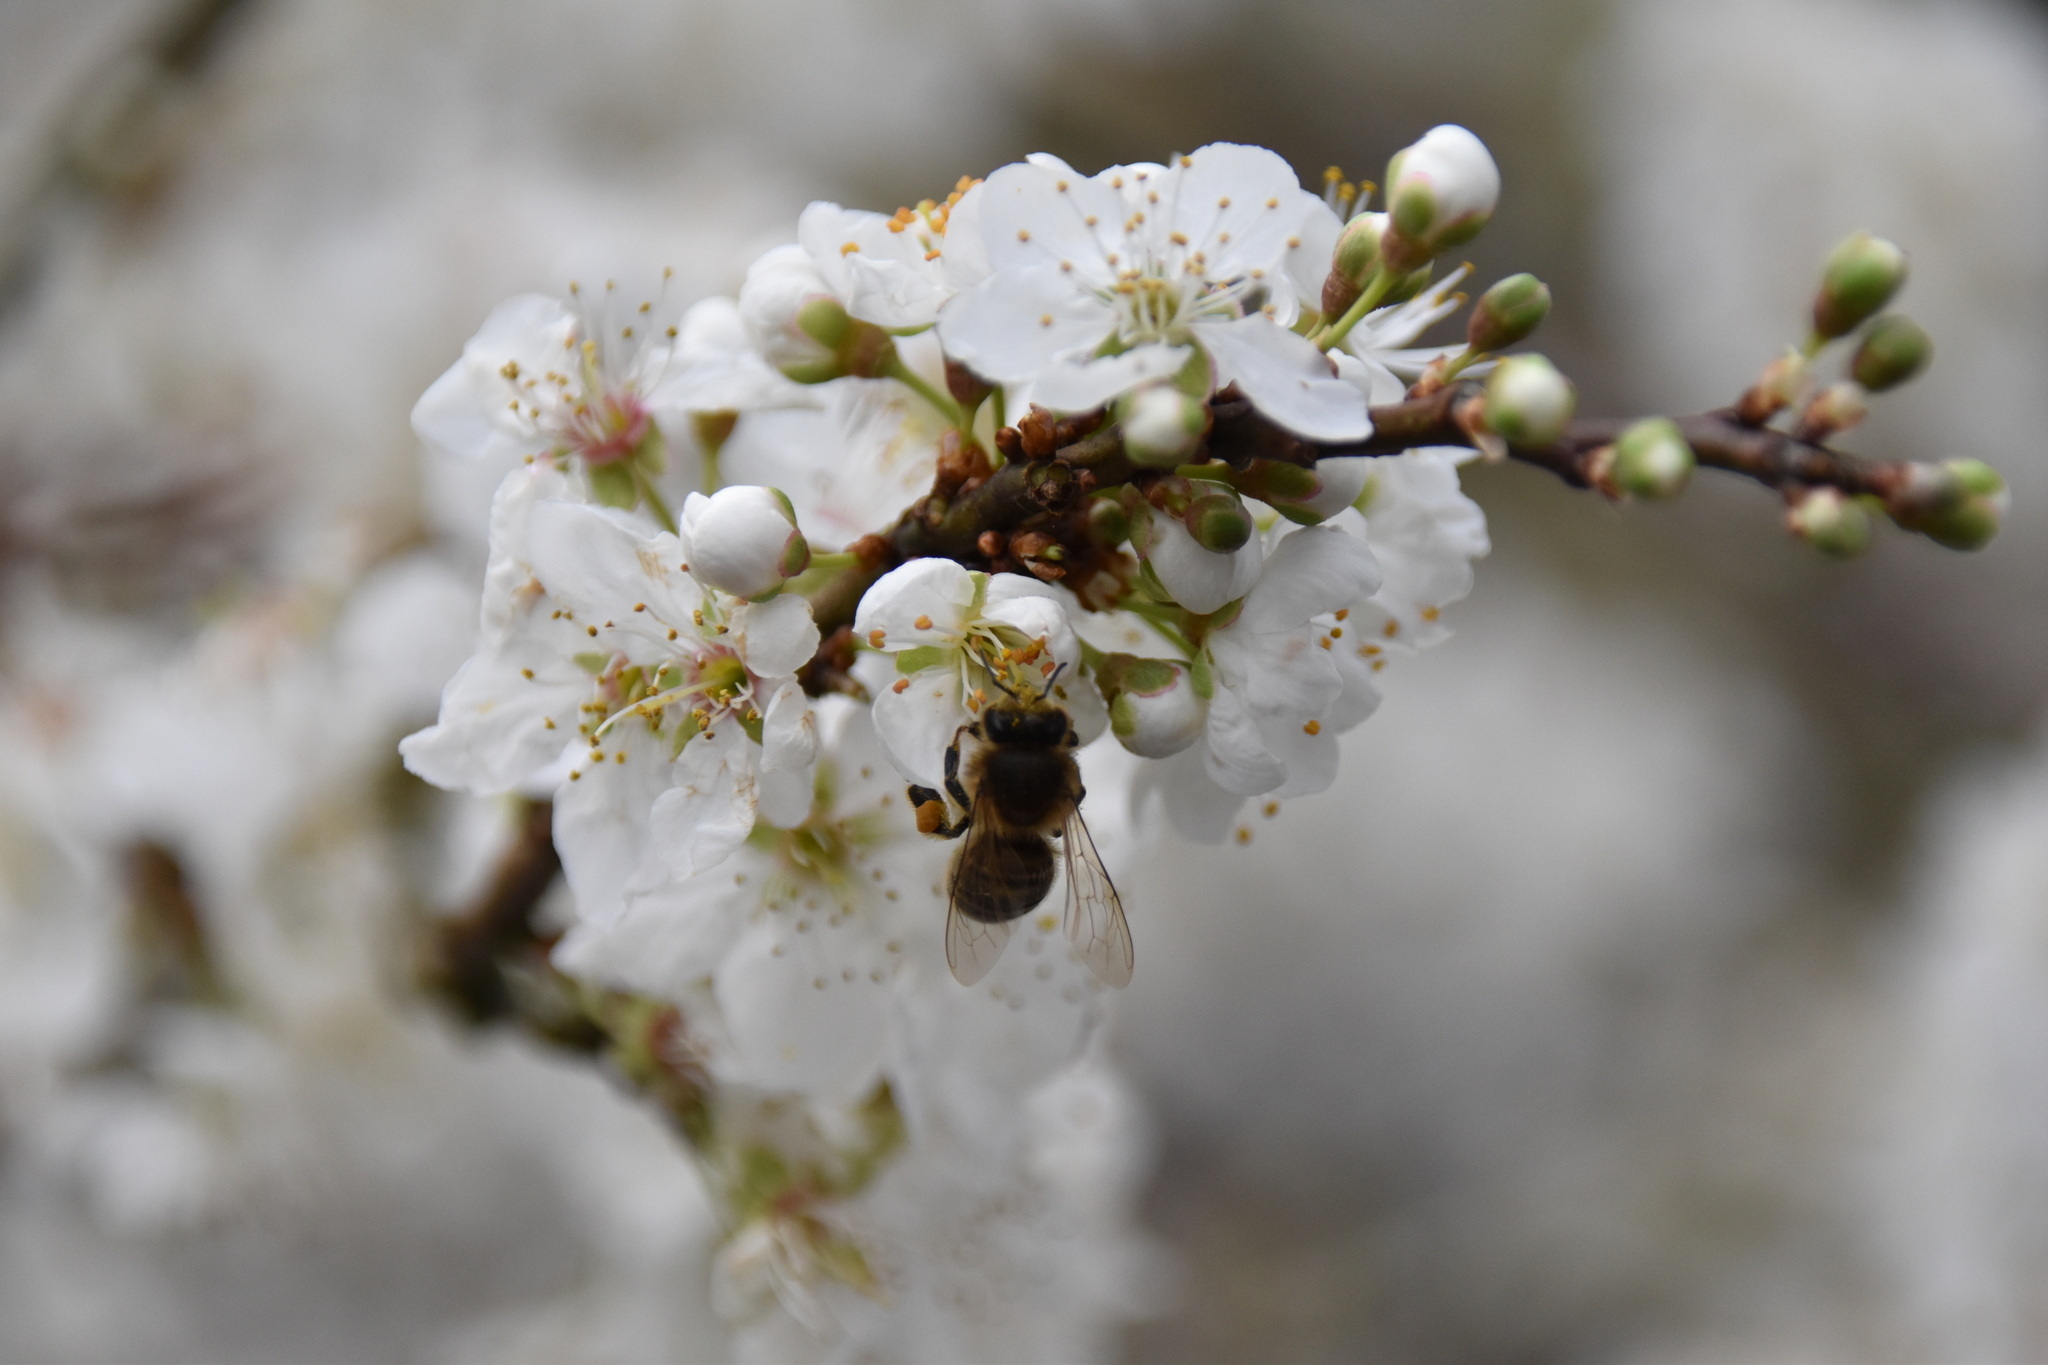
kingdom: Animalia
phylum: Arthropoda
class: Insecta
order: Hymenoptera
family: Apidae
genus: Apis
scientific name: Apis mellifera
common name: Honey bee
